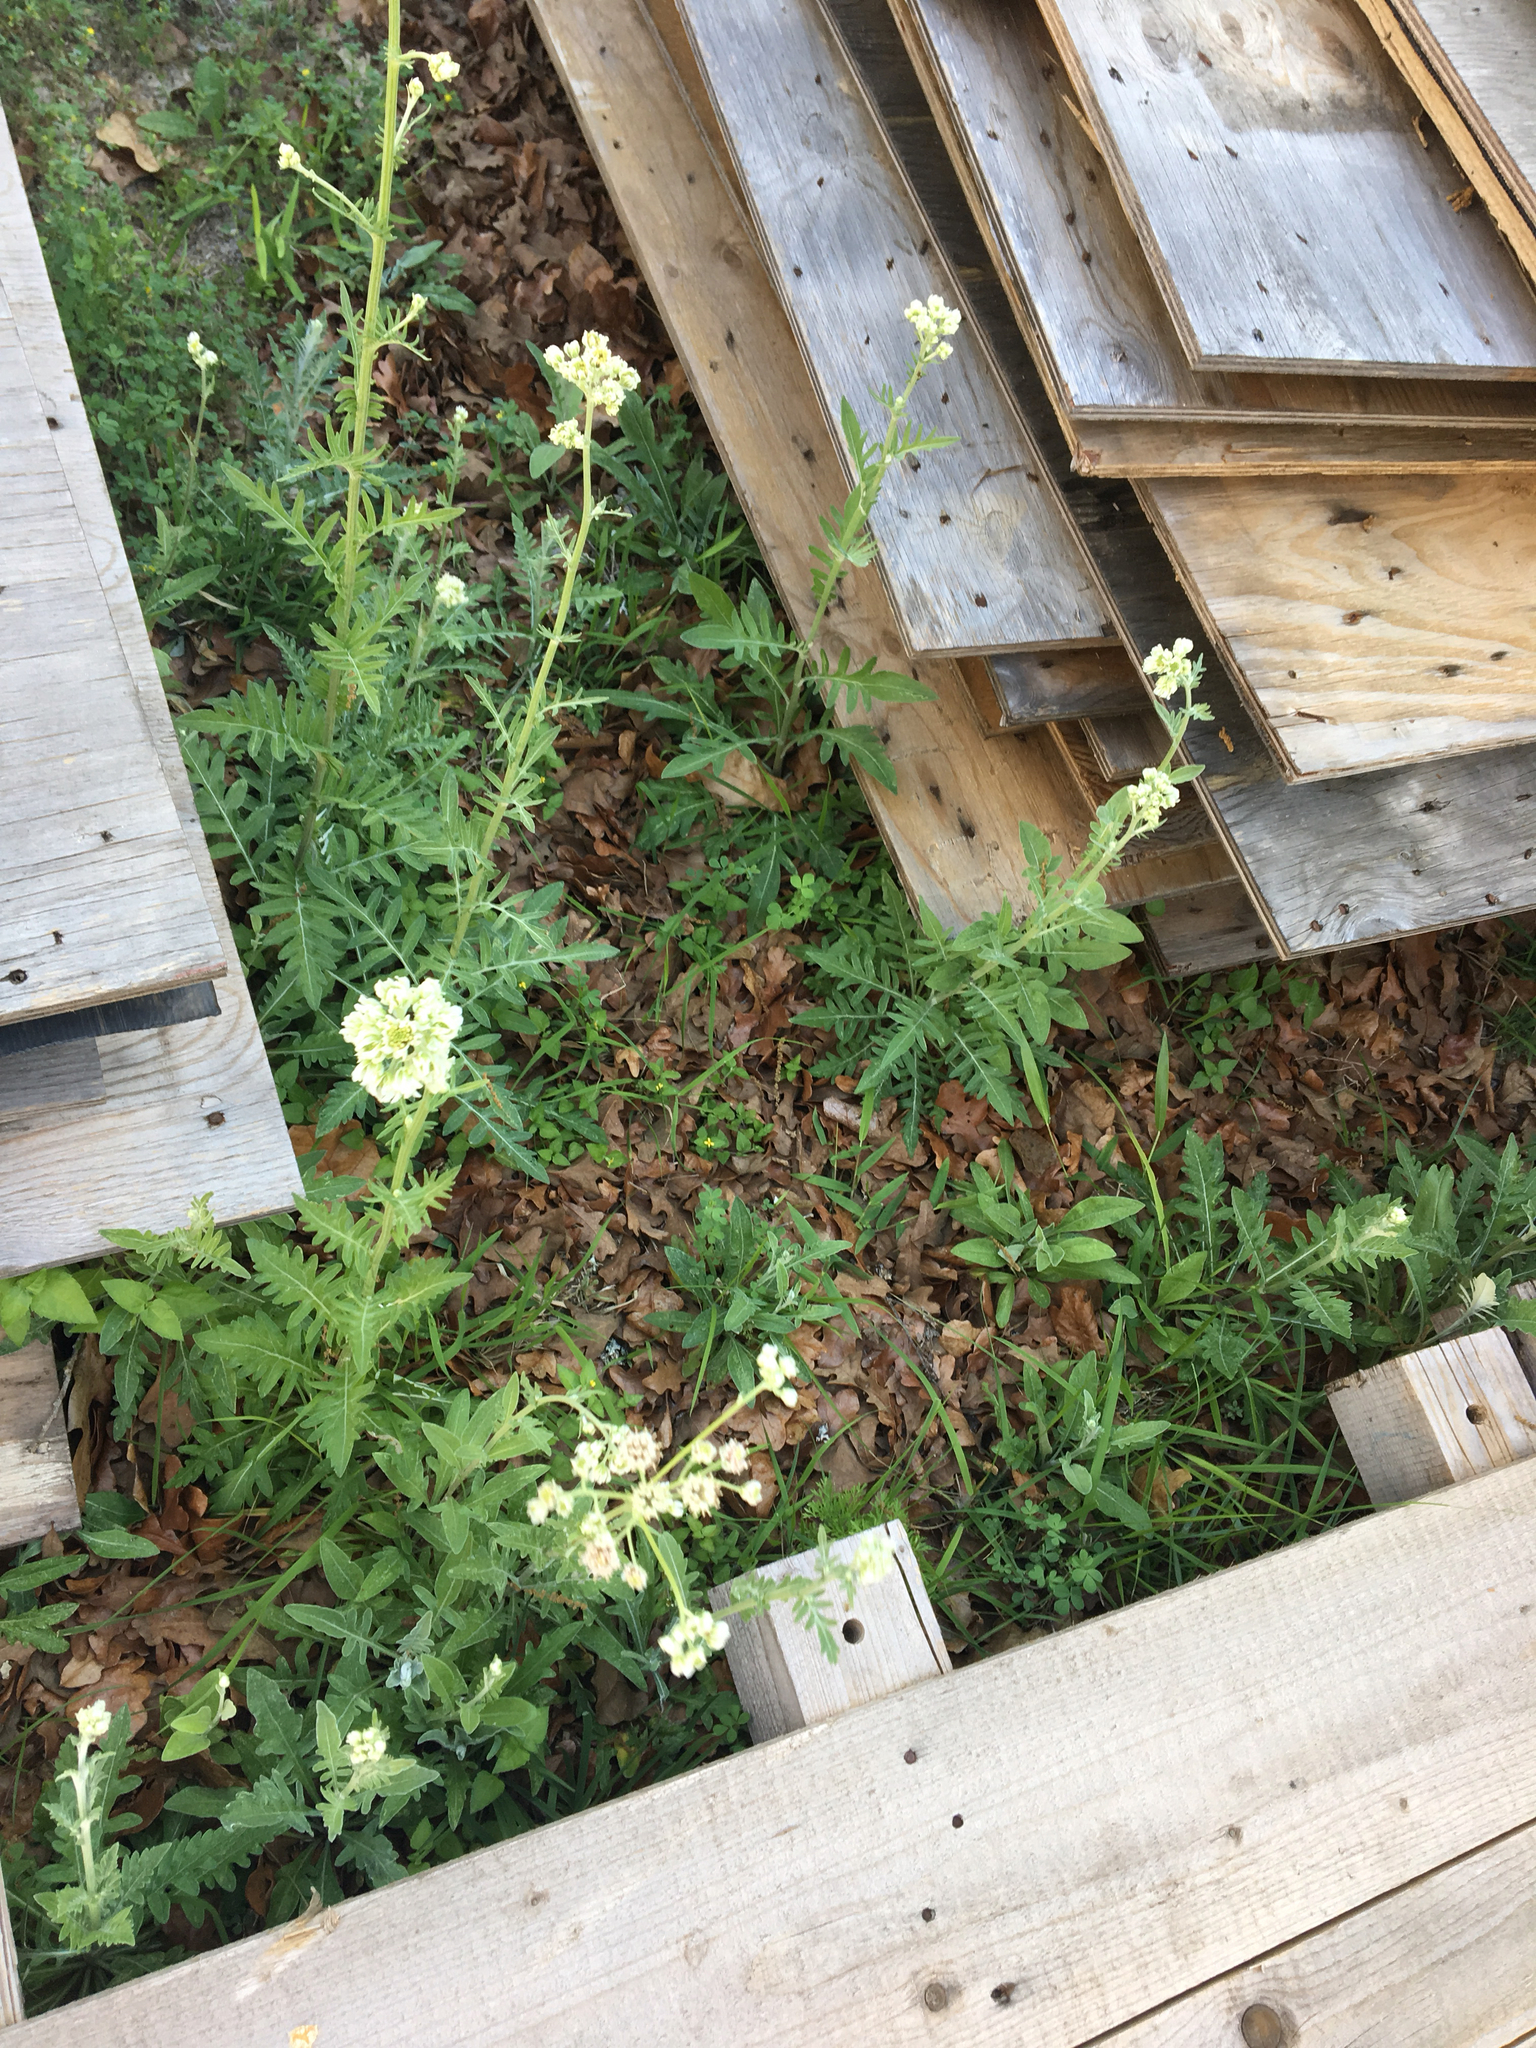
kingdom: Plantae
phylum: Tracheophyta
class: Magnoliopsida
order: Asterales
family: Asteraceae
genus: Hymenopappus
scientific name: Hymenopappus artemisiifolius
